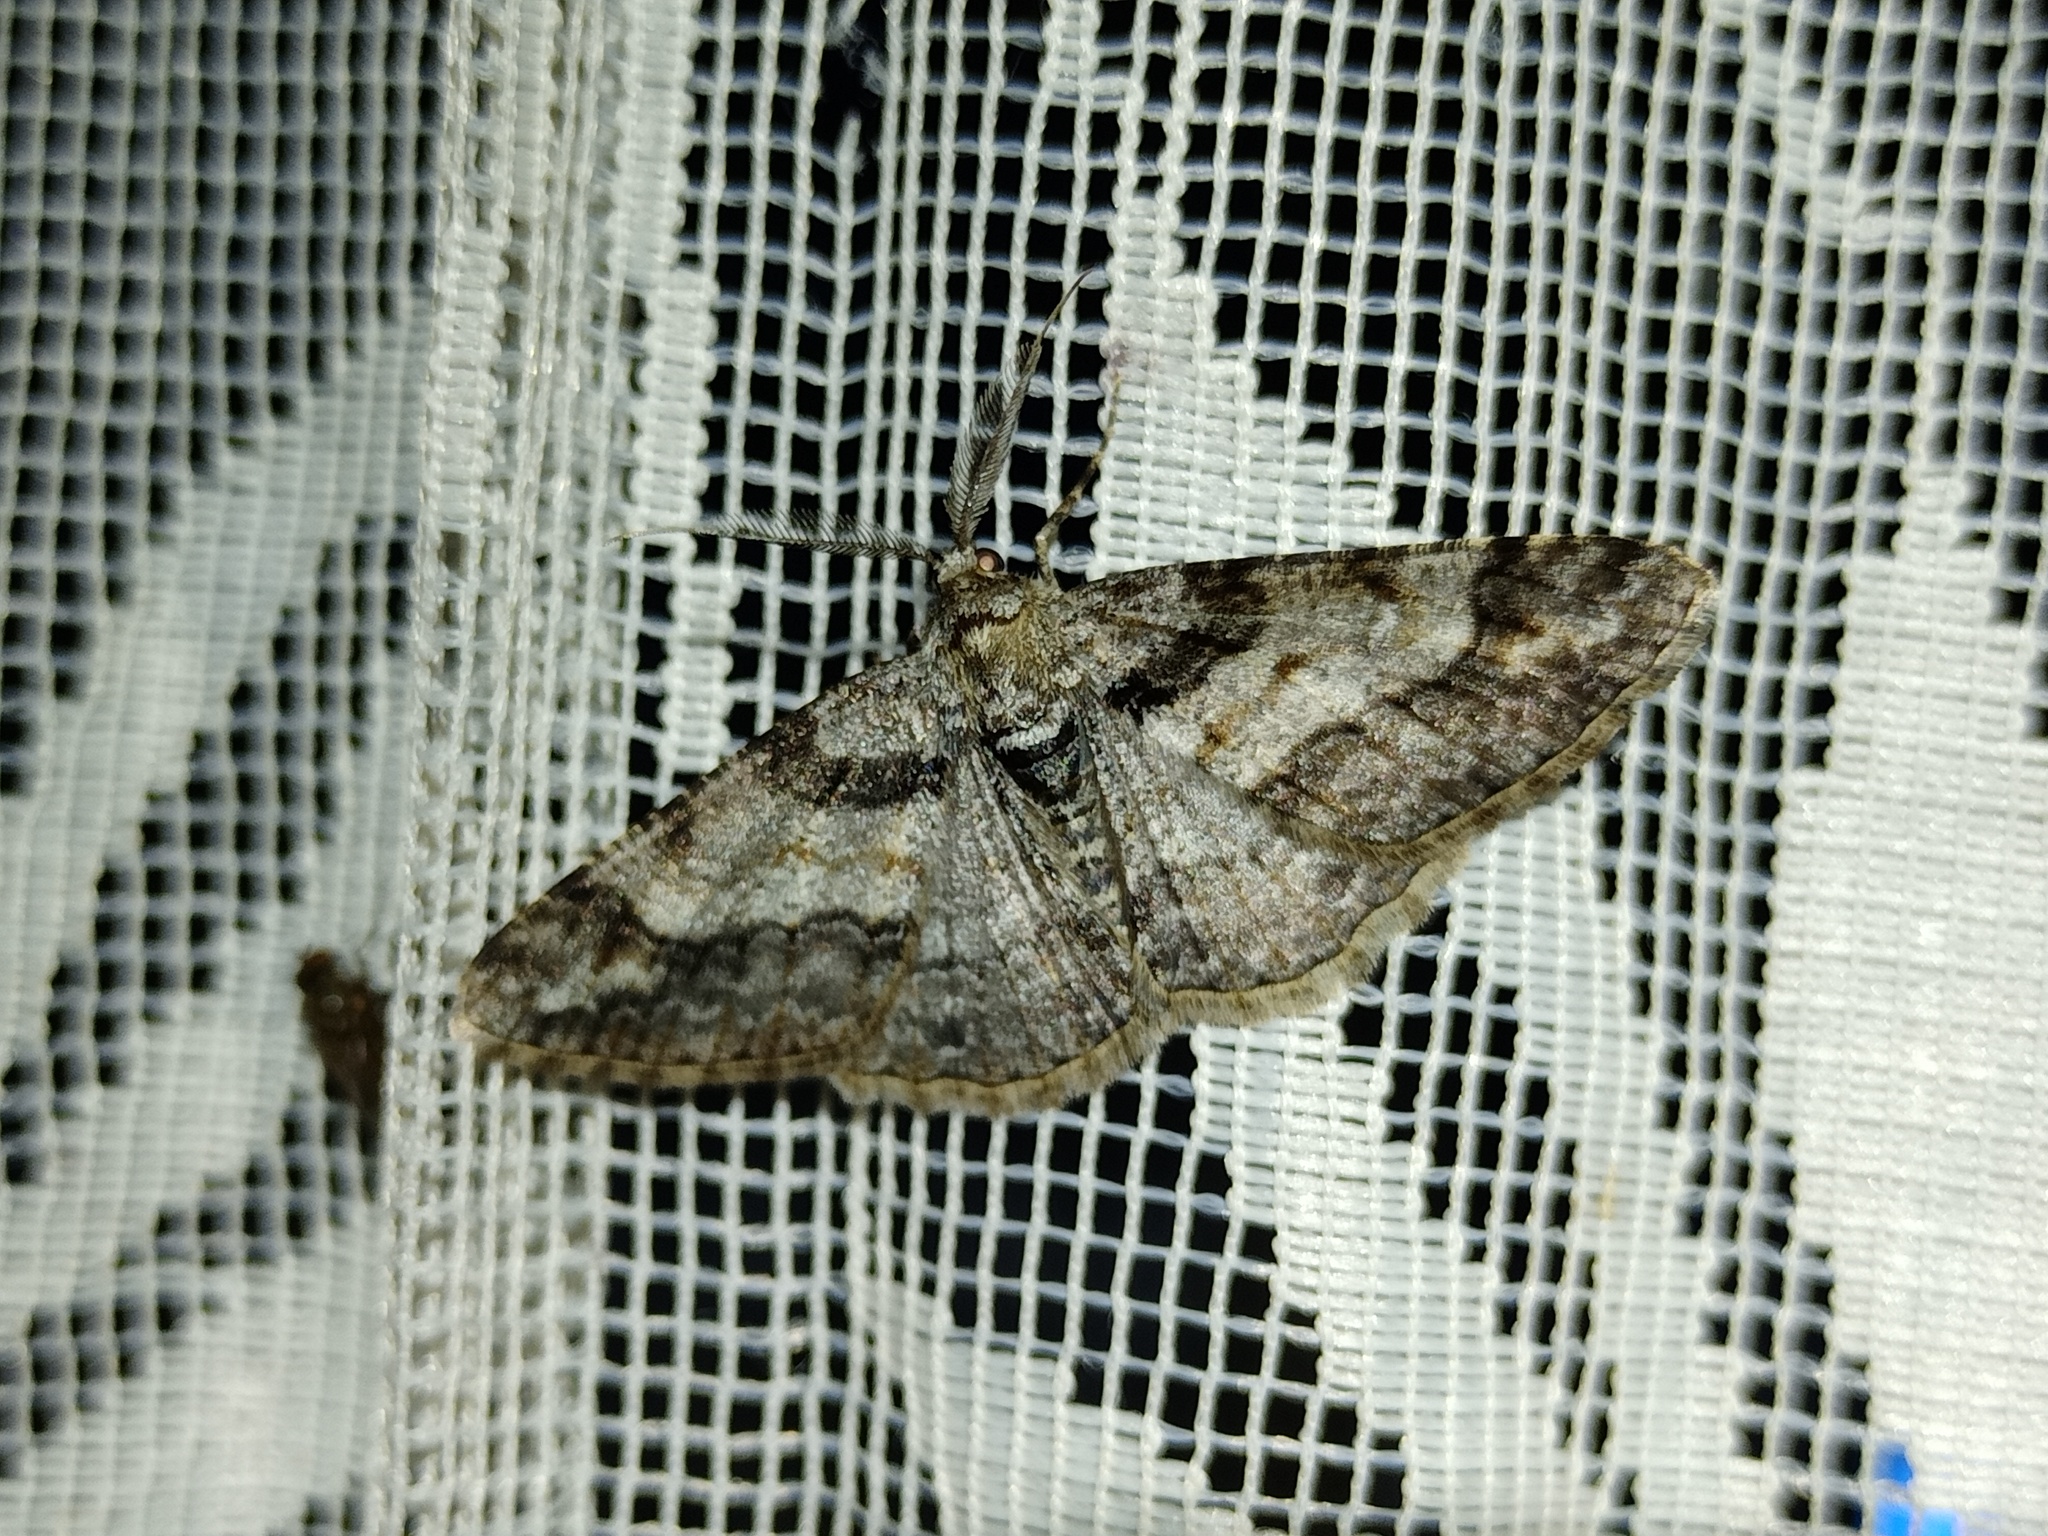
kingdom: Animalia
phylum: Arthropoda
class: Insecta
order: Lepidoptera
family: Geometridae
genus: Cleora
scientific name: Cleora cinctaria
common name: Ringed carpet
